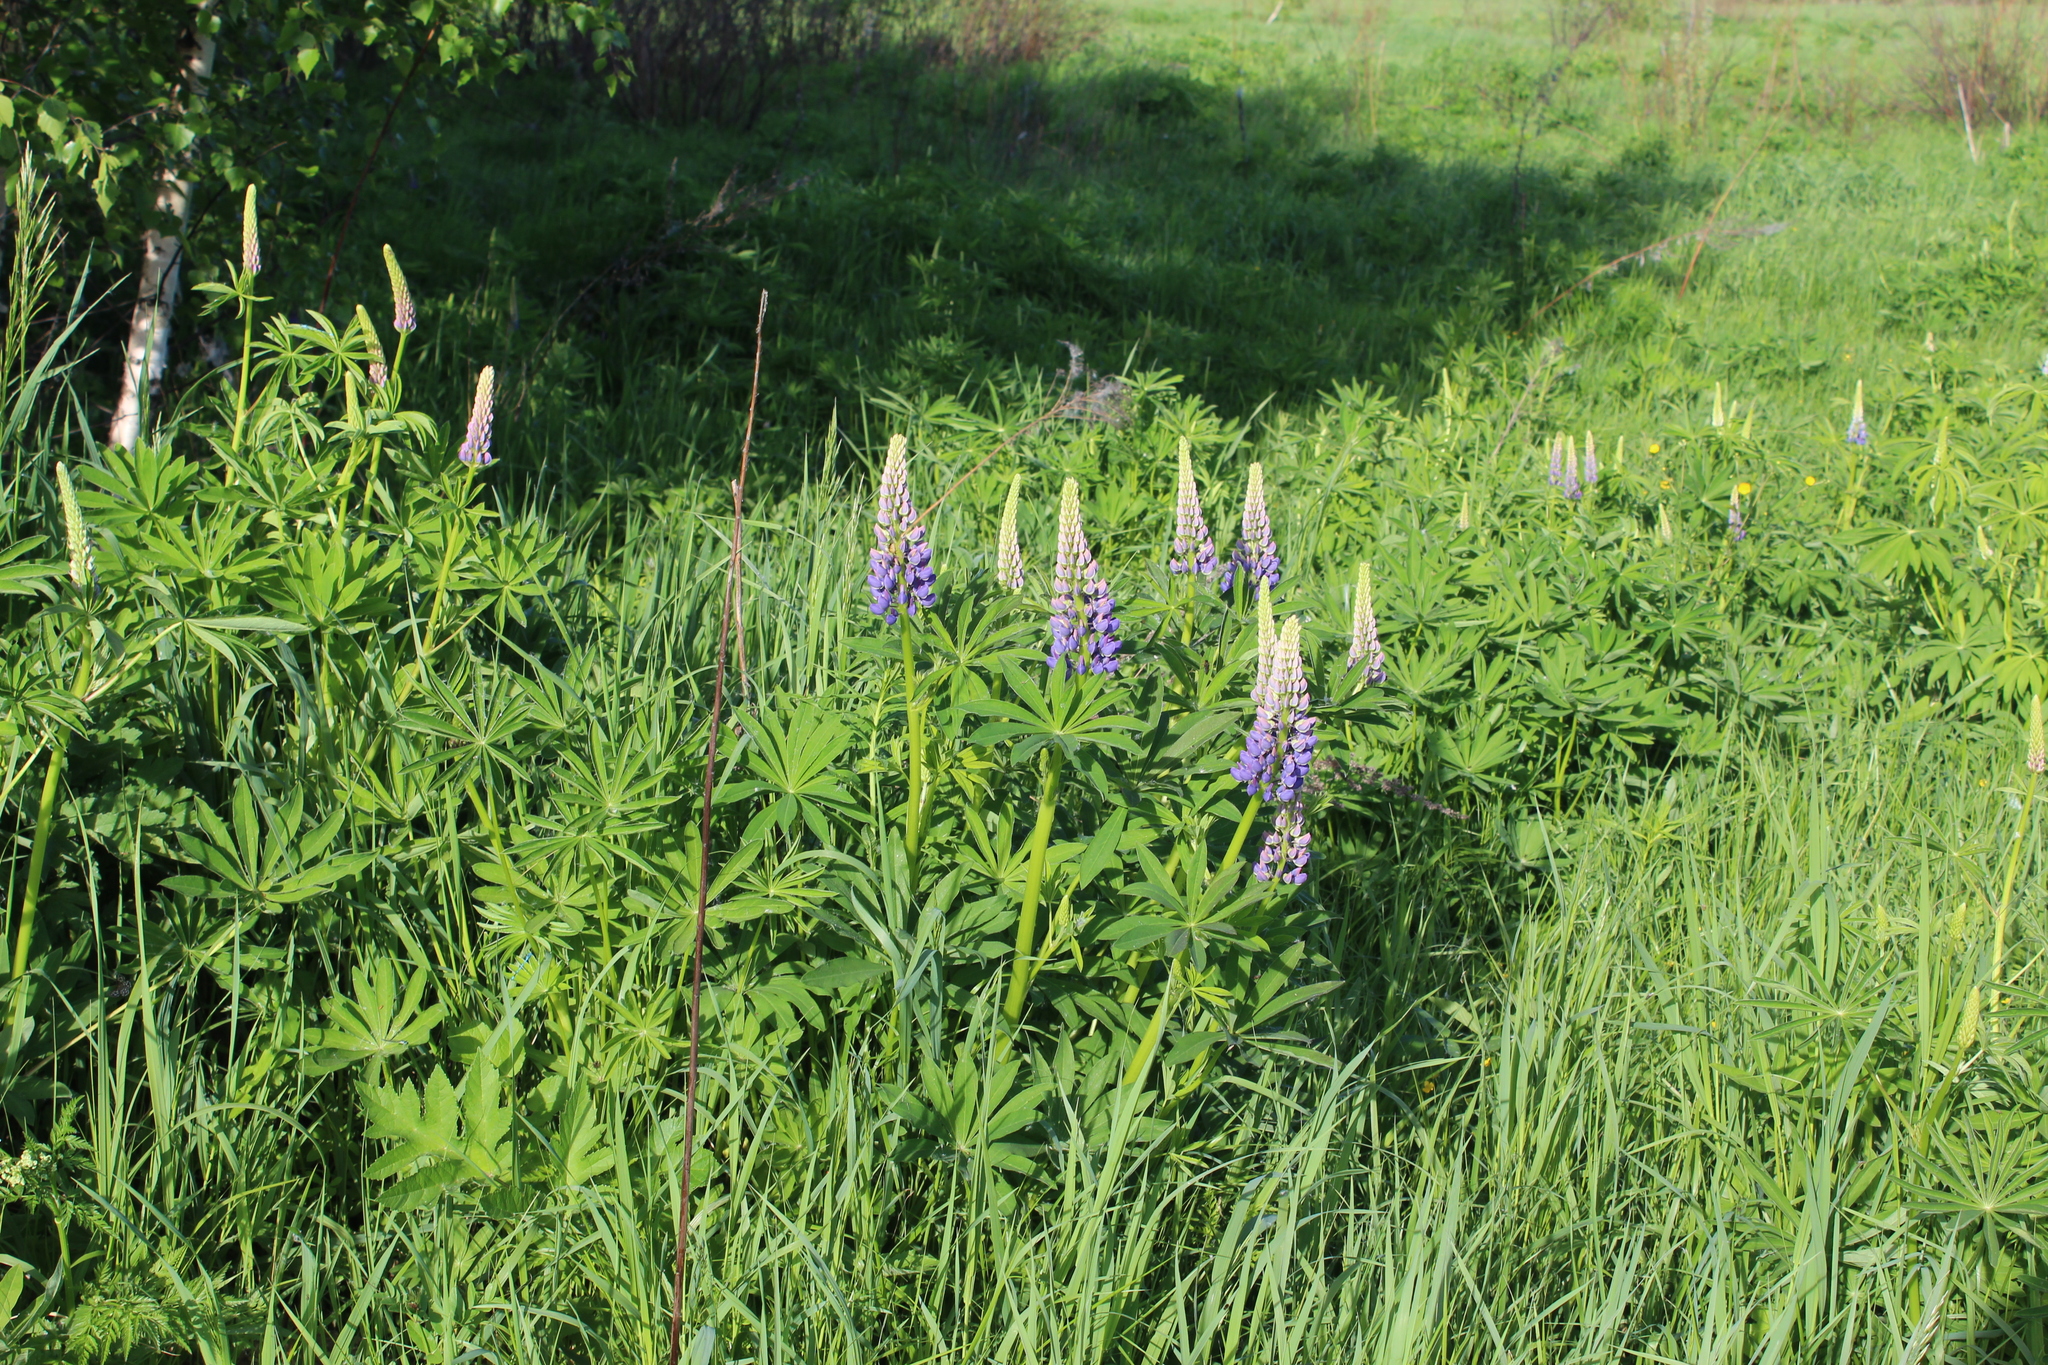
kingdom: Plantae
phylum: Tracheophyta
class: Magnoliopsida
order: Fabales
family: Fabaceae
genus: Lupinus
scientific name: Lupinus polyphyllus
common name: Garden lupin
